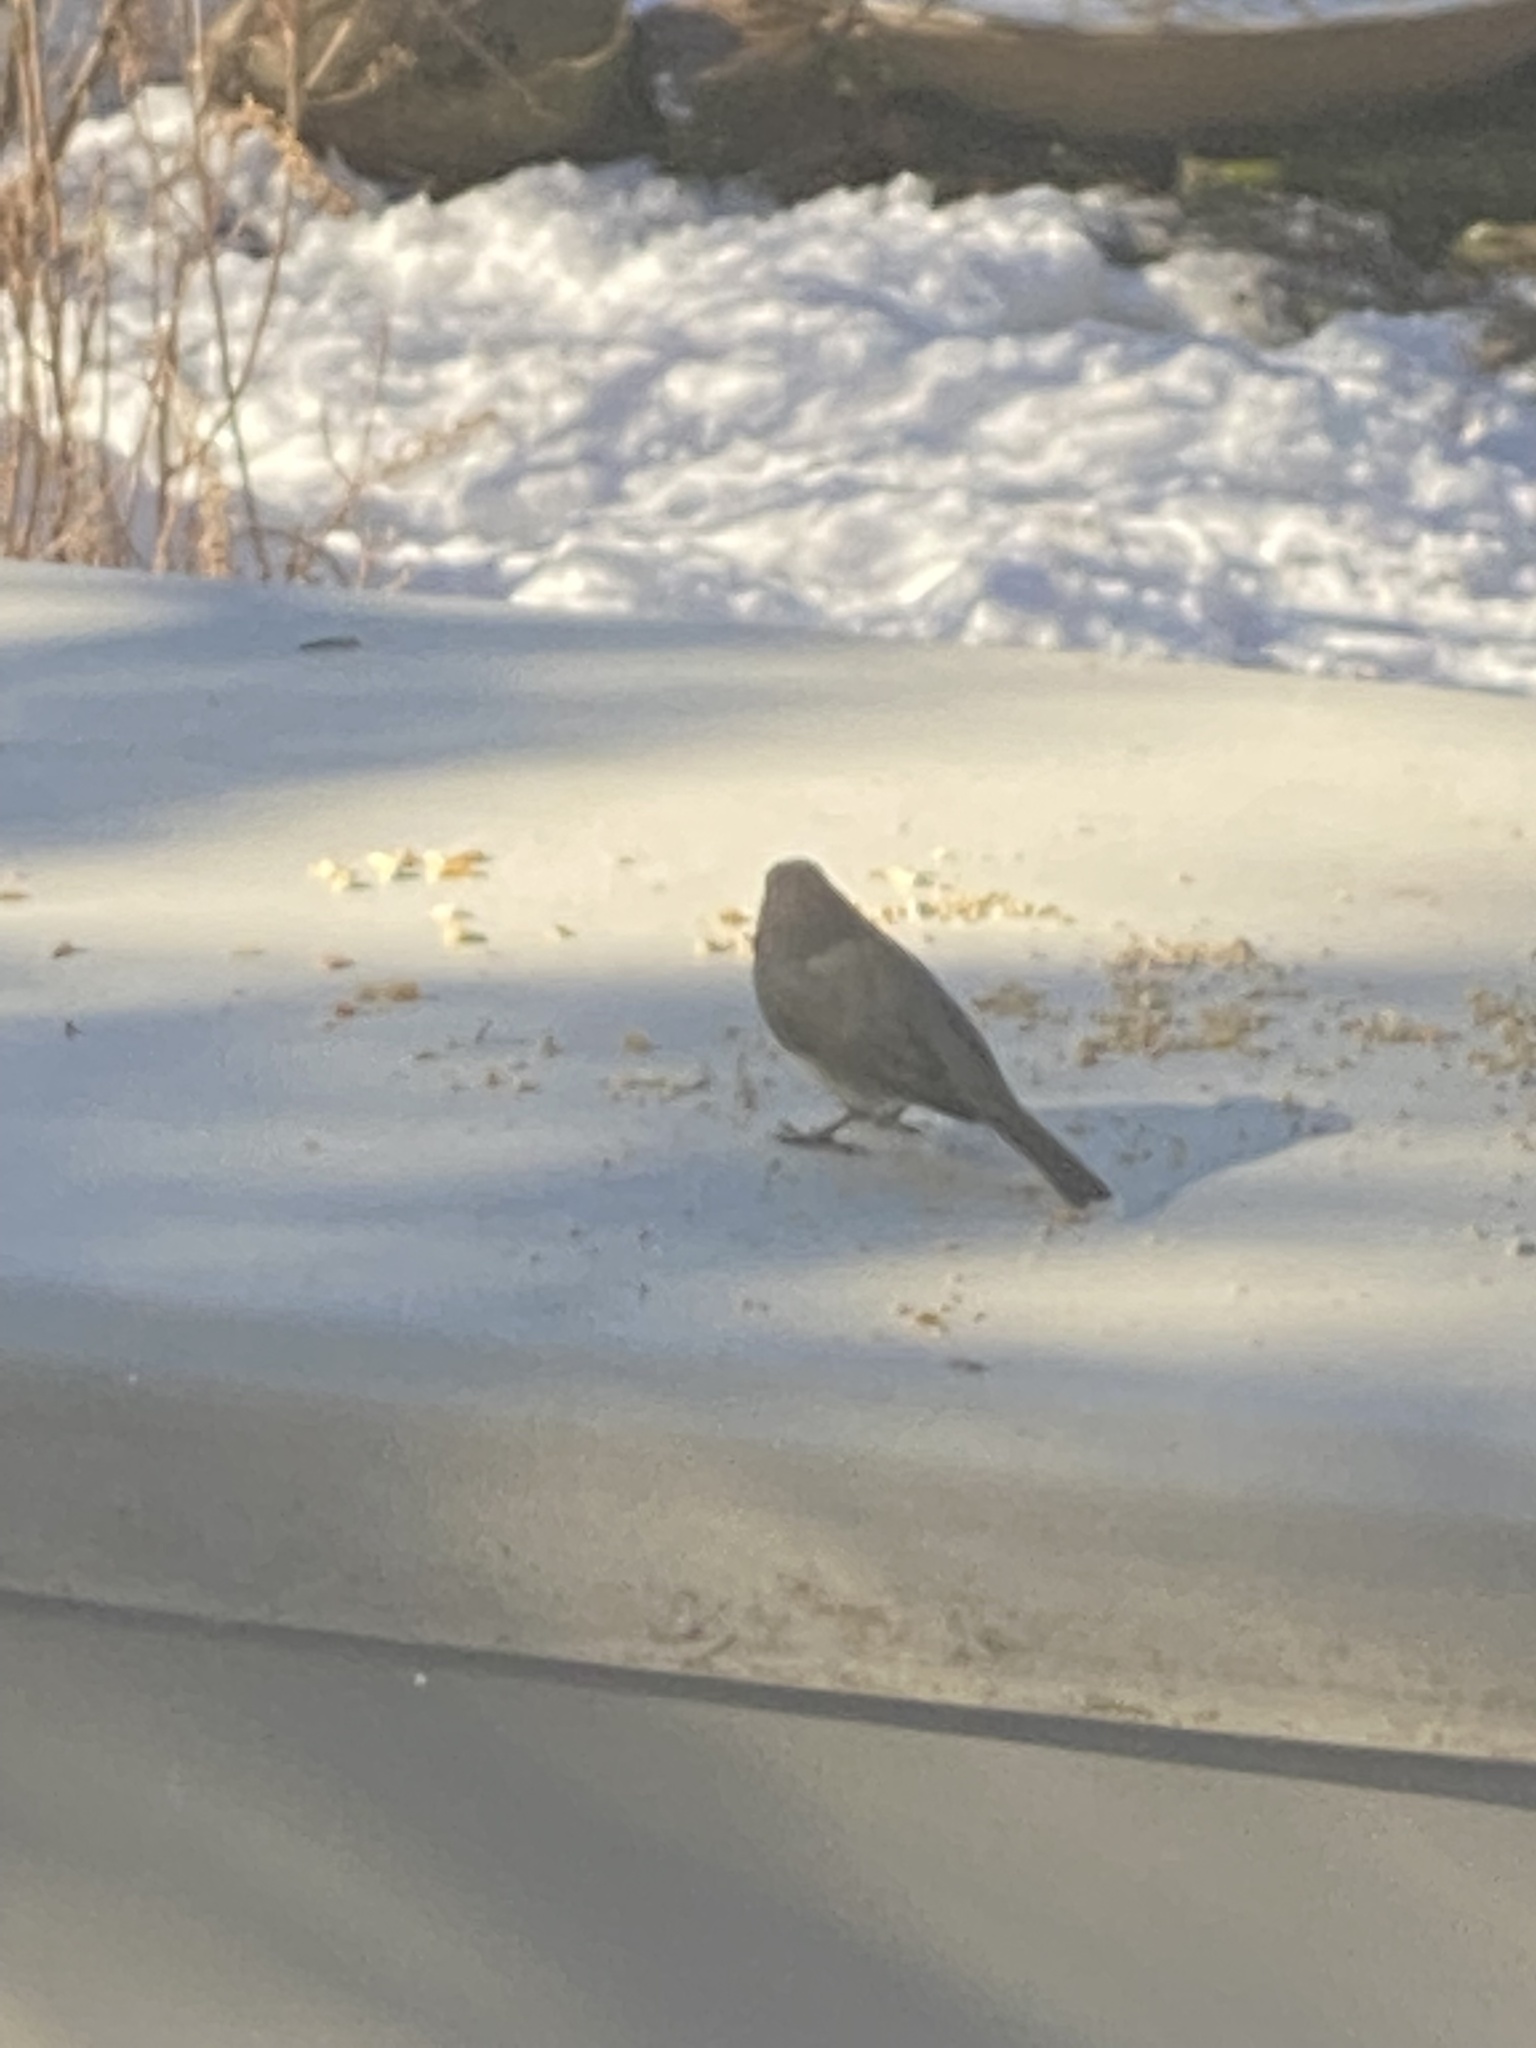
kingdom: Animalia
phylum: Chordata
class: Aves
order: Passeriformes
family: Passerellidae
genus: Junco
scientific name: Junco hyemalis
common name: Dark-eyed junco
